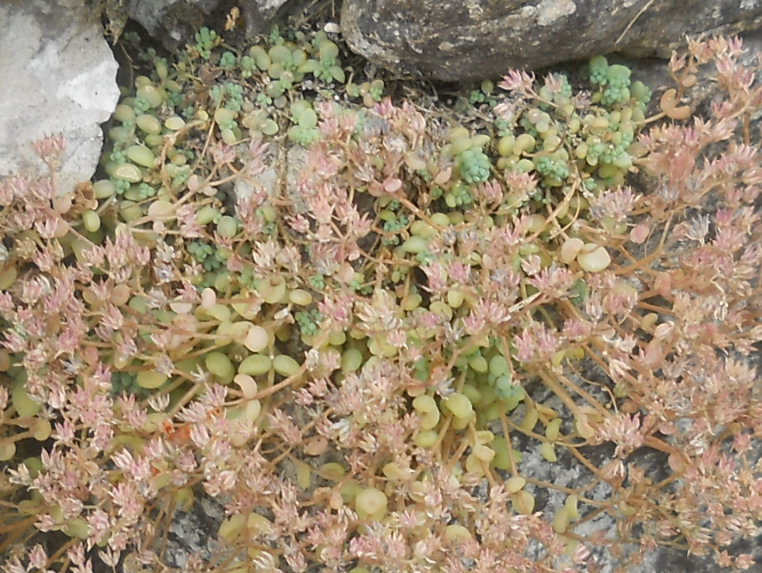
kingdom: Plantae
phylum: Tracheophyta
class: Magnoliopsida
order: Saxifragales
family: Crassulaceae
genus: Sedum
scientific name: Sedum dasyphyllum
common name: Thick-leaf stonecrop
